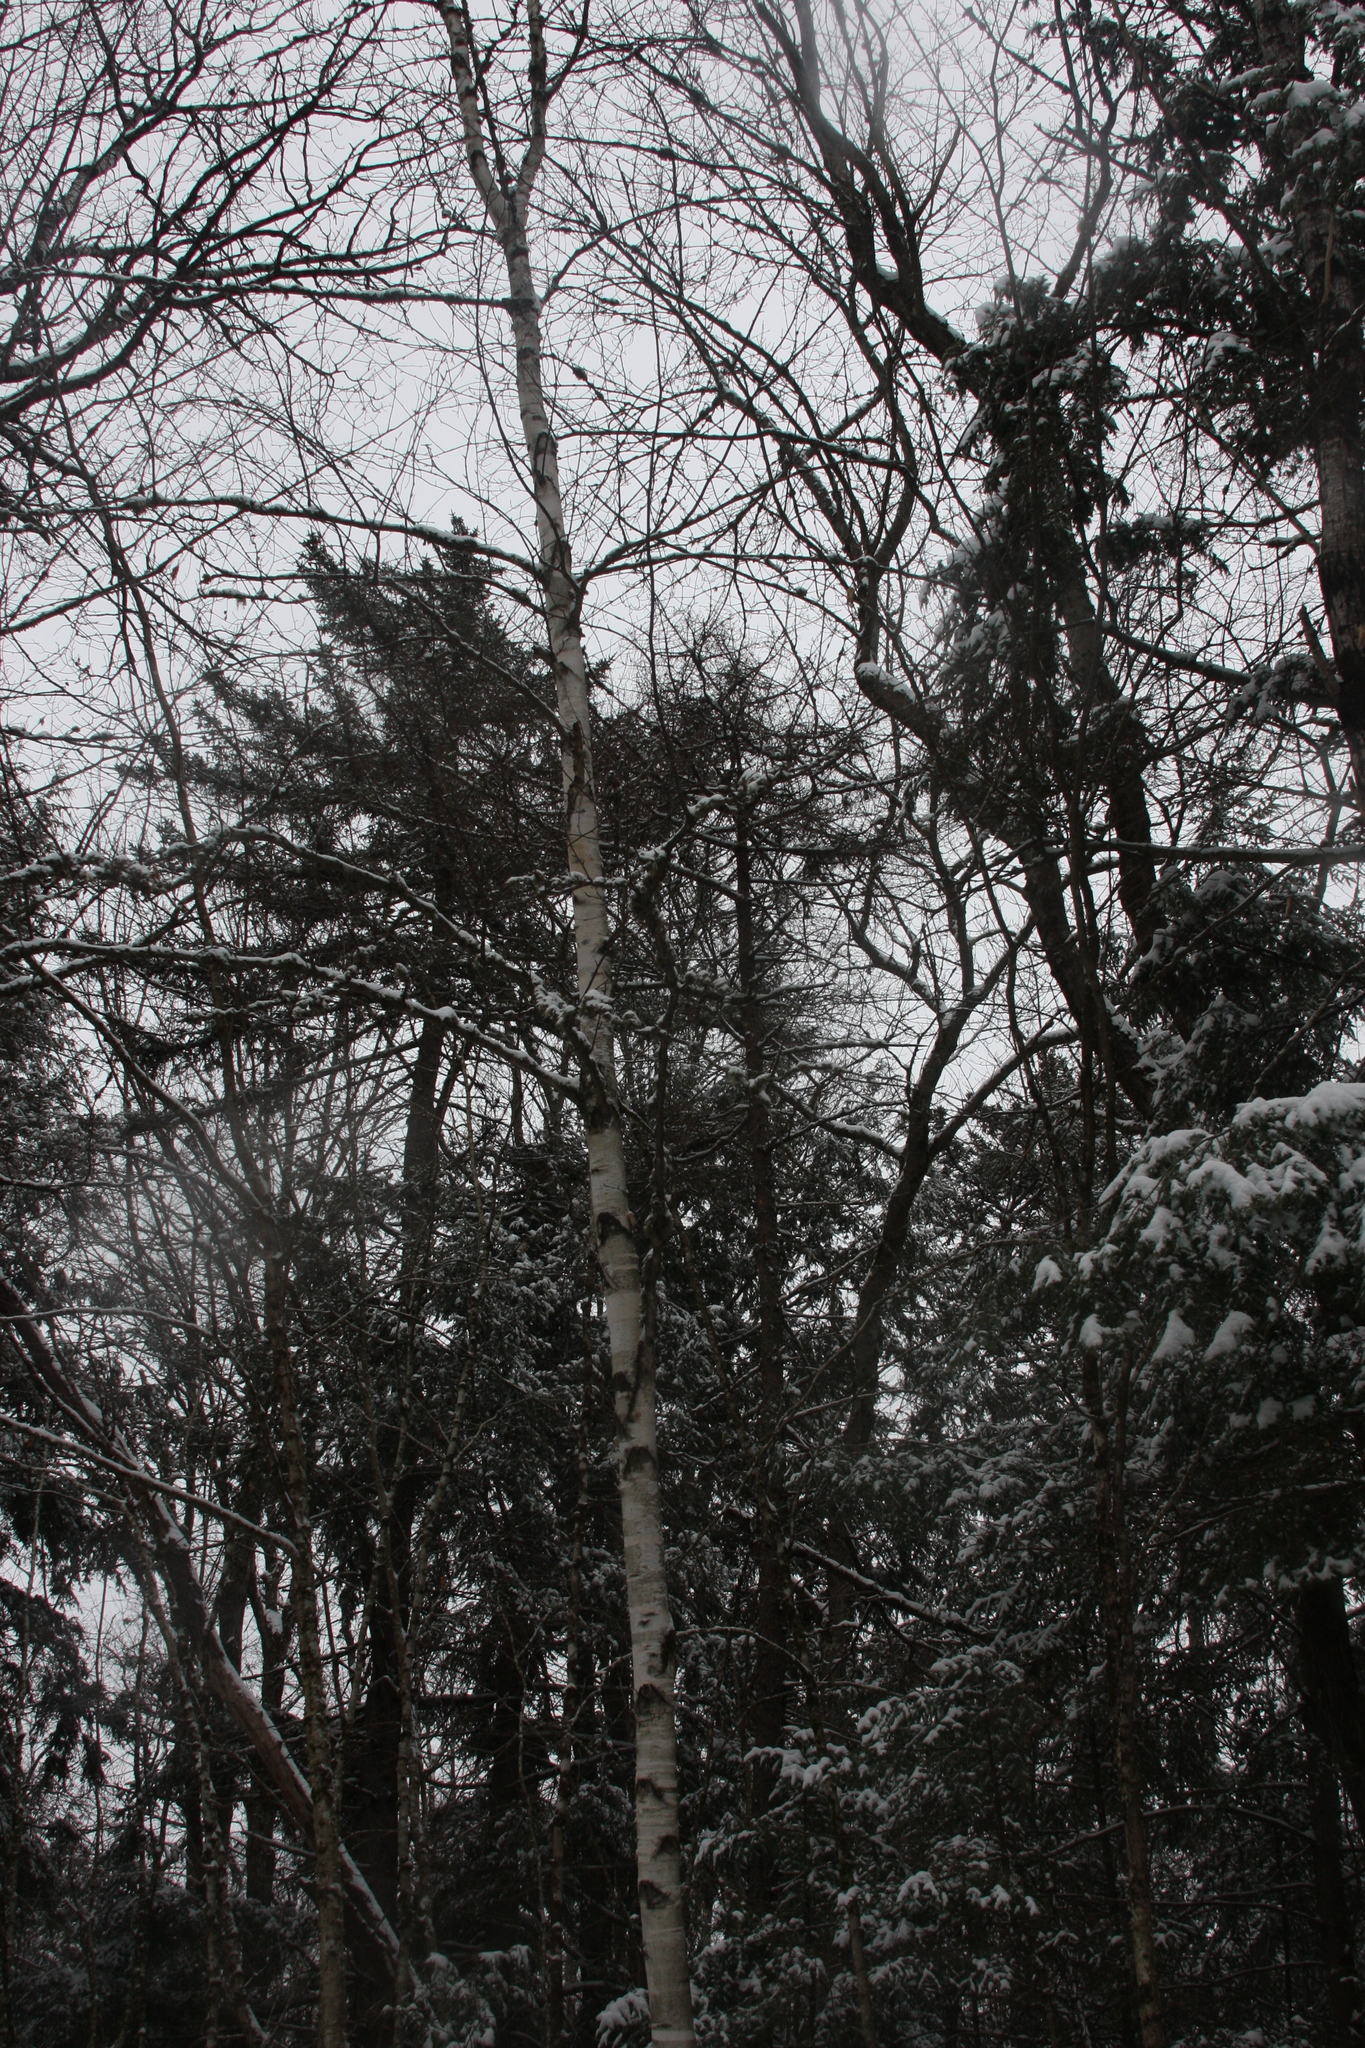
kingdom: Plantae
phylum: Tracheophyta
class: Magnoliopsida
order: Fagales
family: Betulaceae
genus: Betula
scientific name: Betula papyrifera
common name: Paper birch
